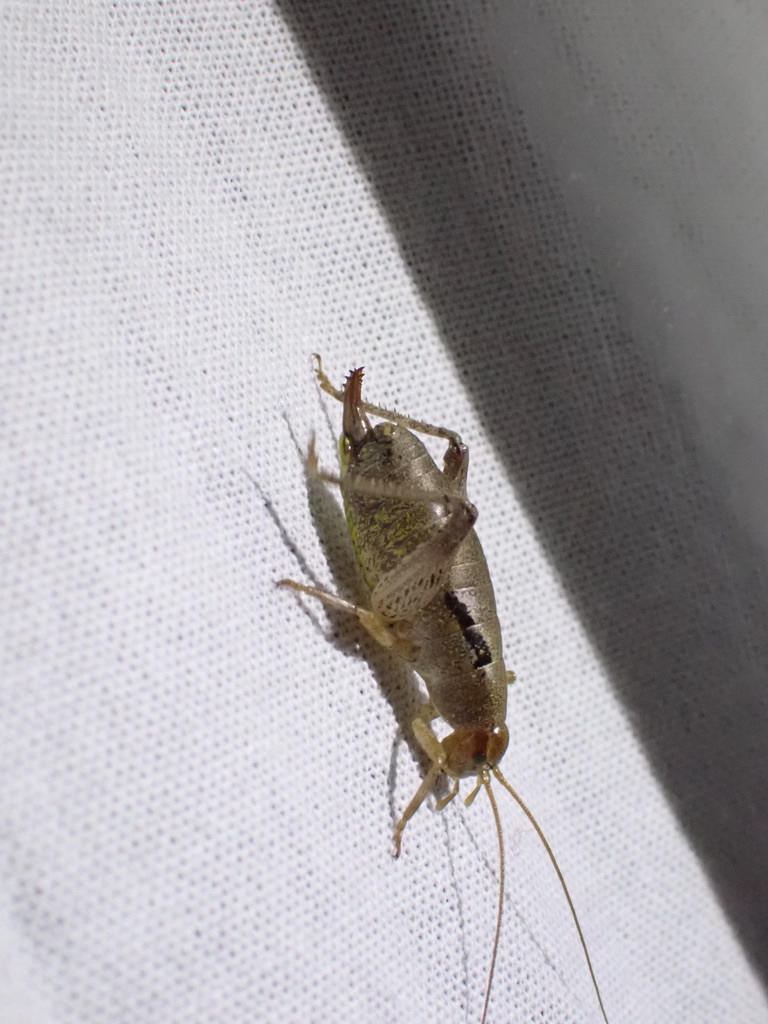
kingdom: Animalia
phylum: Arthropoda
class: Insecta
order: Orthoptera
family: Rhaphidophoridae
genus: Gammarotettix
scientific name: Gammarotettix bilobatus
